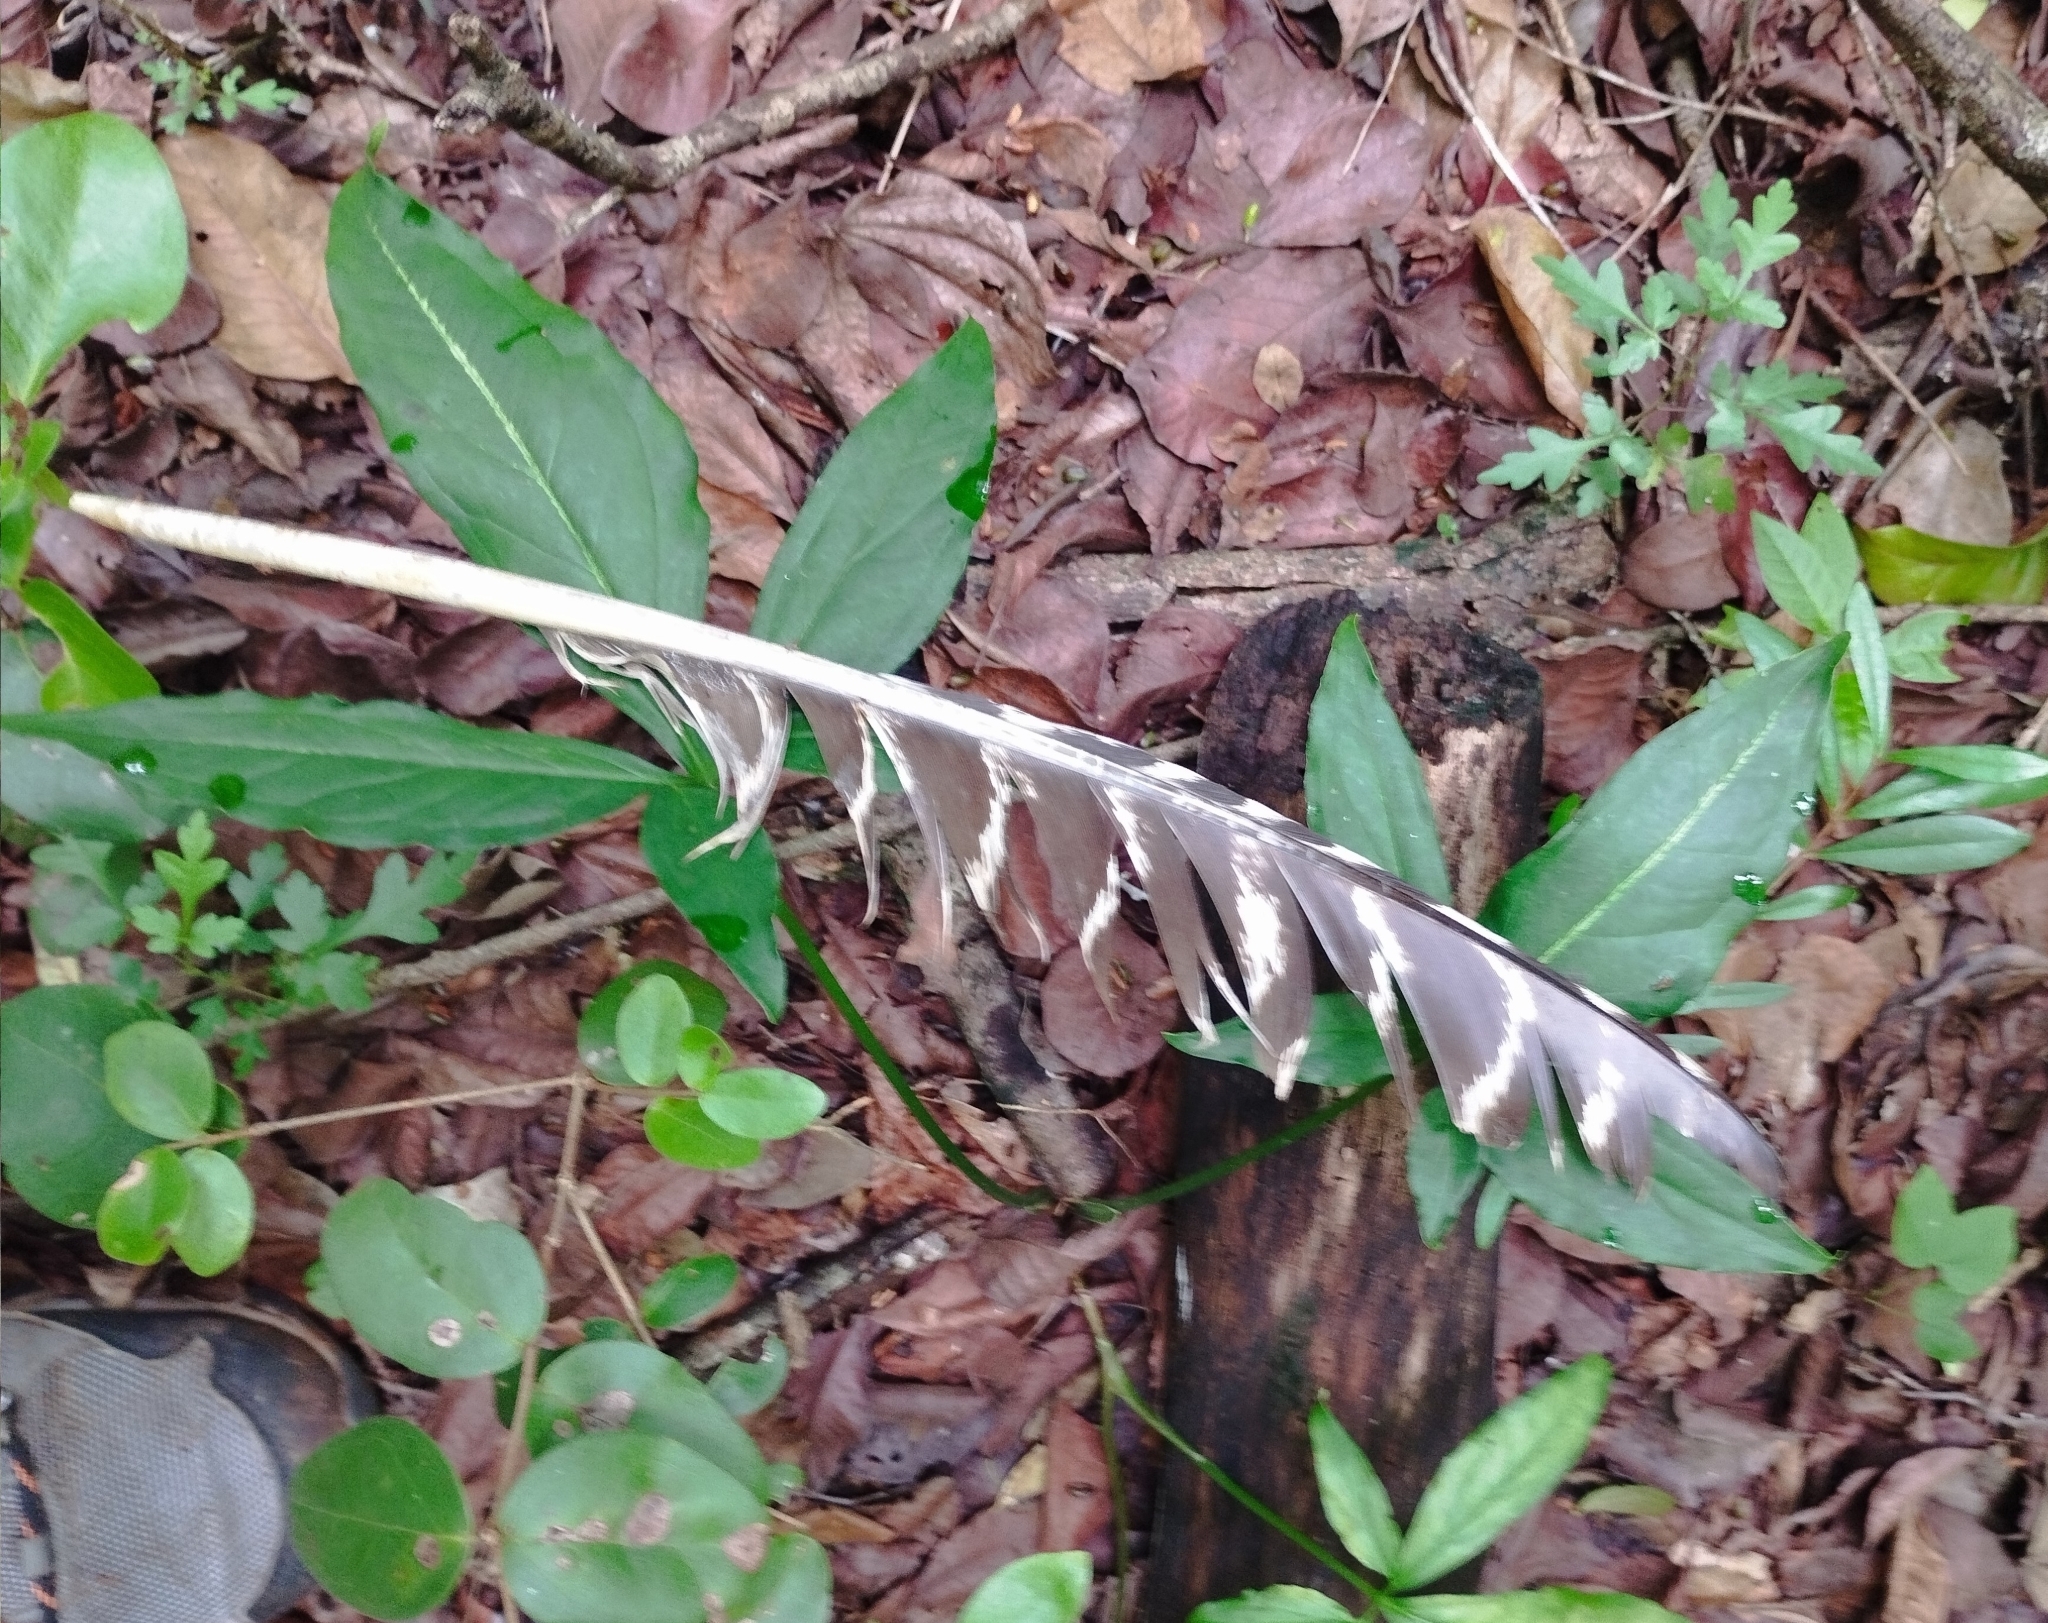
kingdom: Animalia
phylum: Chordata
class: Aves
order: Galliformes
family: Phasianidae
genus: Meleagris
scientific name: Meleagris ocellata
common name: Ocellated turkey
